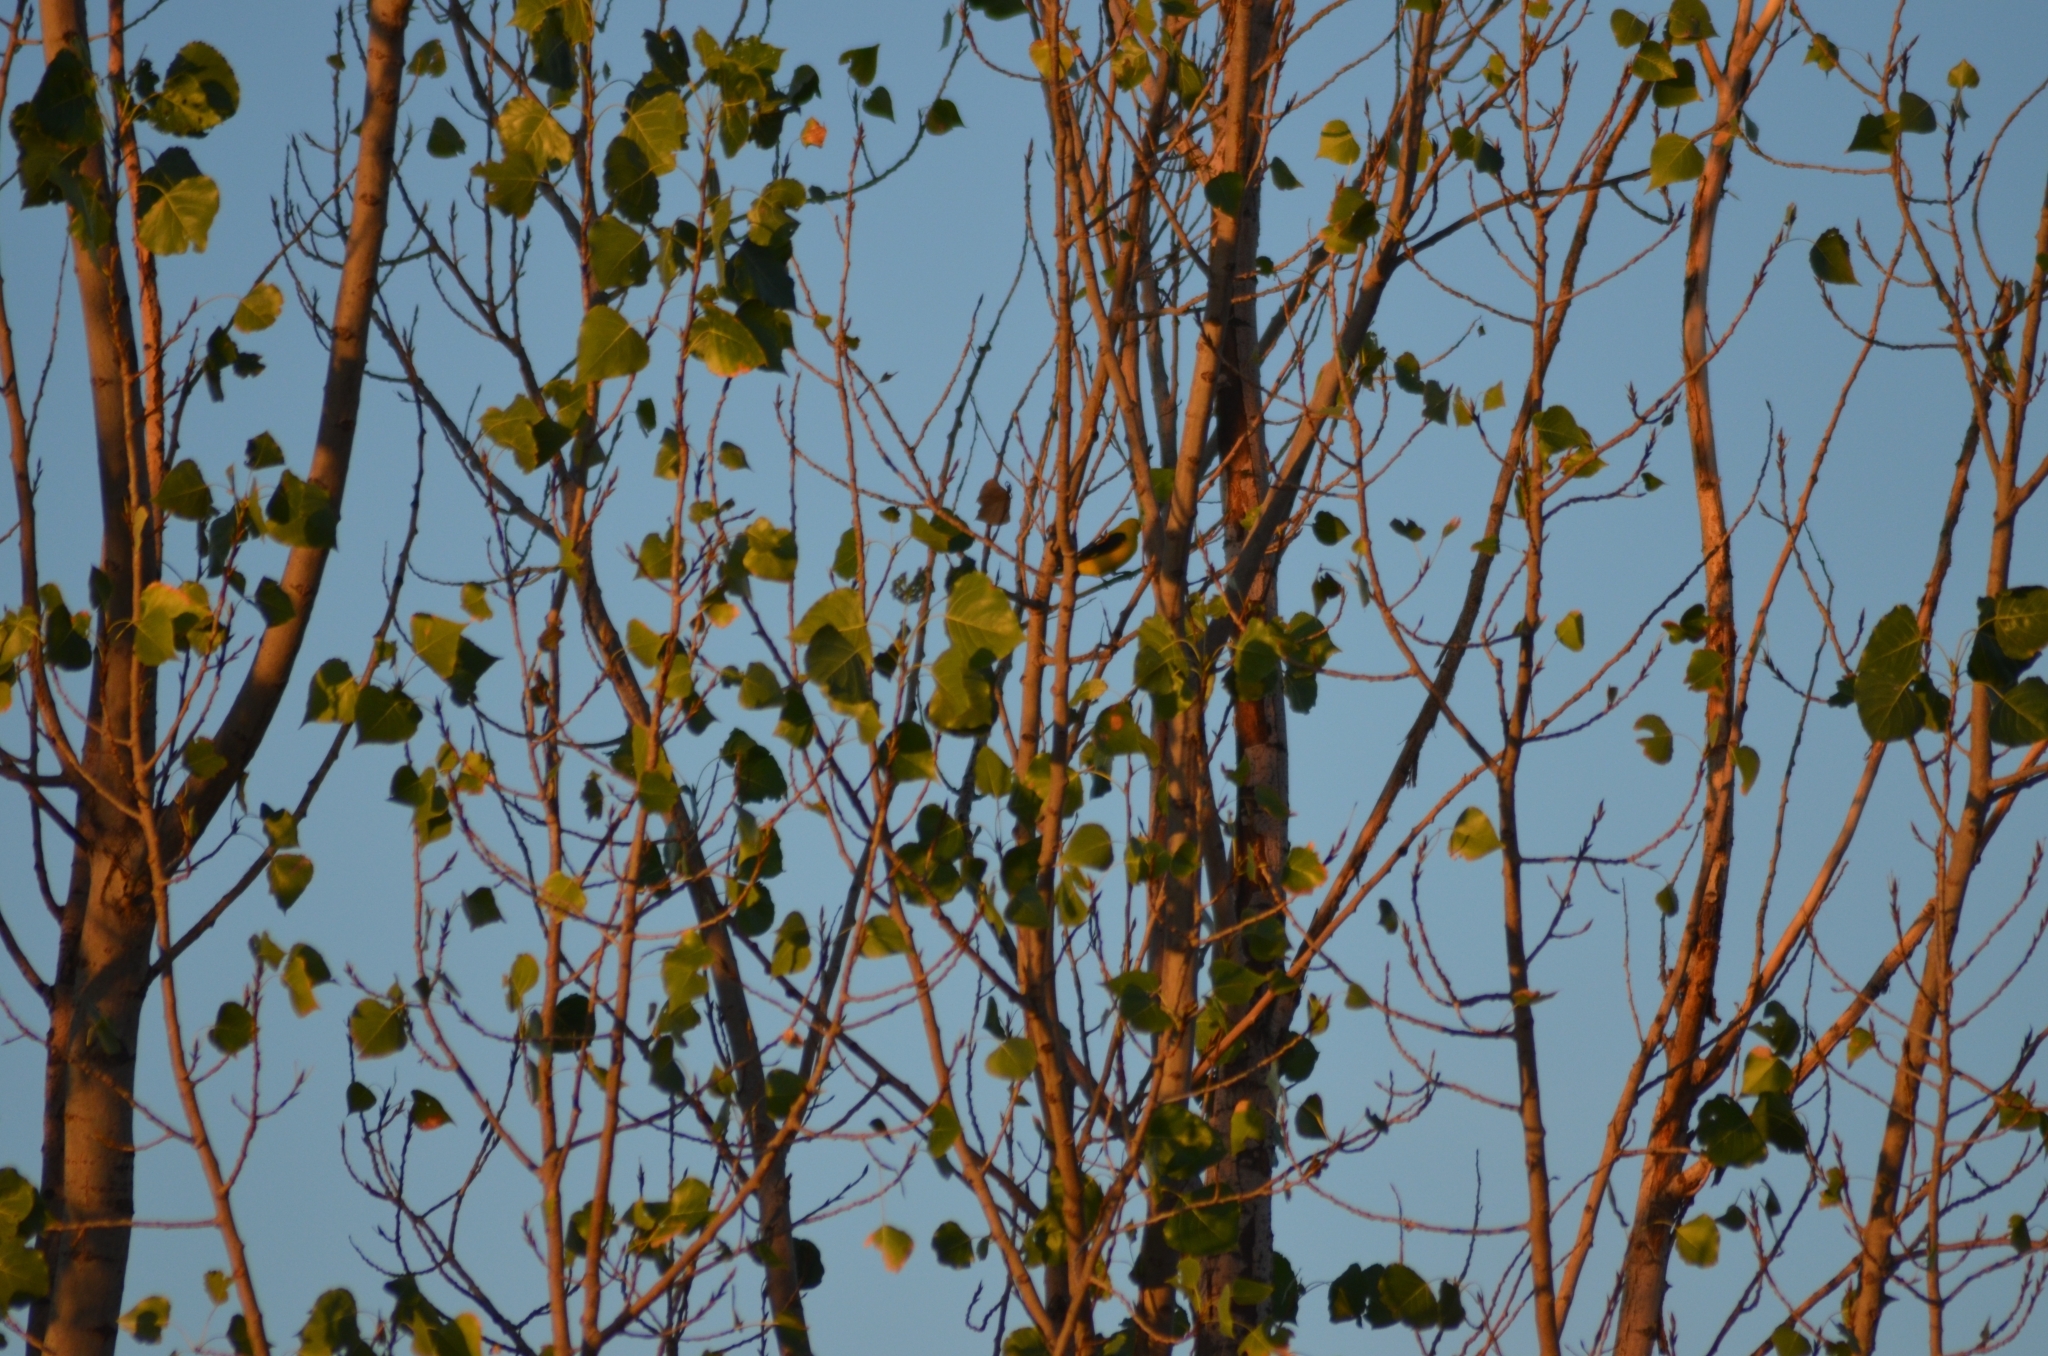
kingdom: Animalia
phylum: Chordata
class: Aves
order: Passeriformes
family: Oriolidae
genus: Oriolus
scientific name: Oriolus oriolus
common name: Eurasian golden oriole
